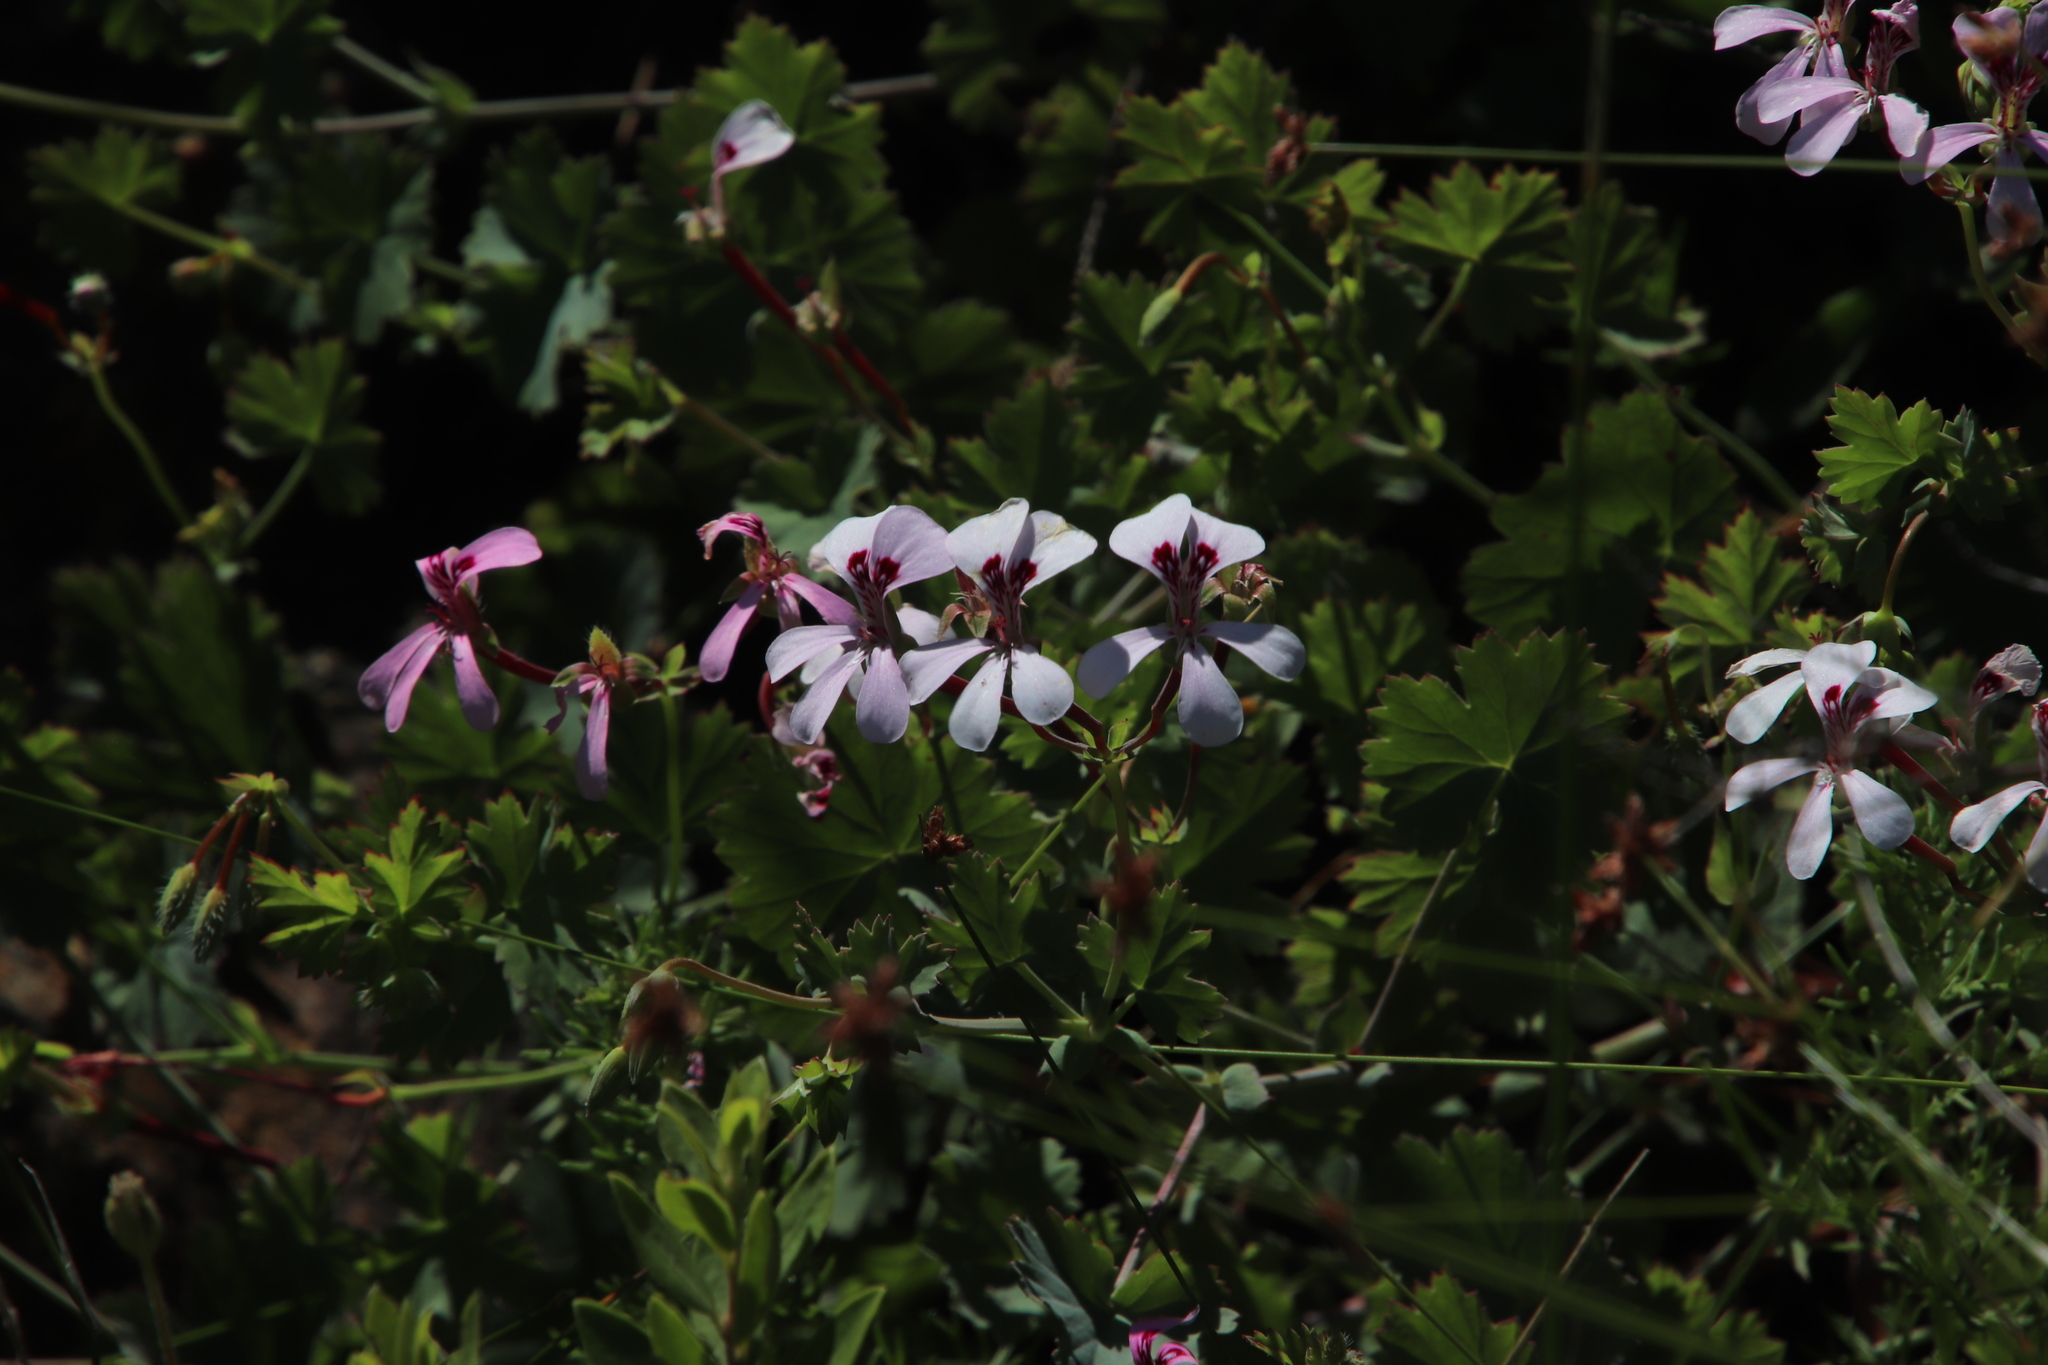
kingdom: Plantae
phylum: Tracheophyta
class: Magnoliopsida
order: Geraniales
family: Geraniaceae
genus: Pelargonium
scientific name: Pelargonium patulum
